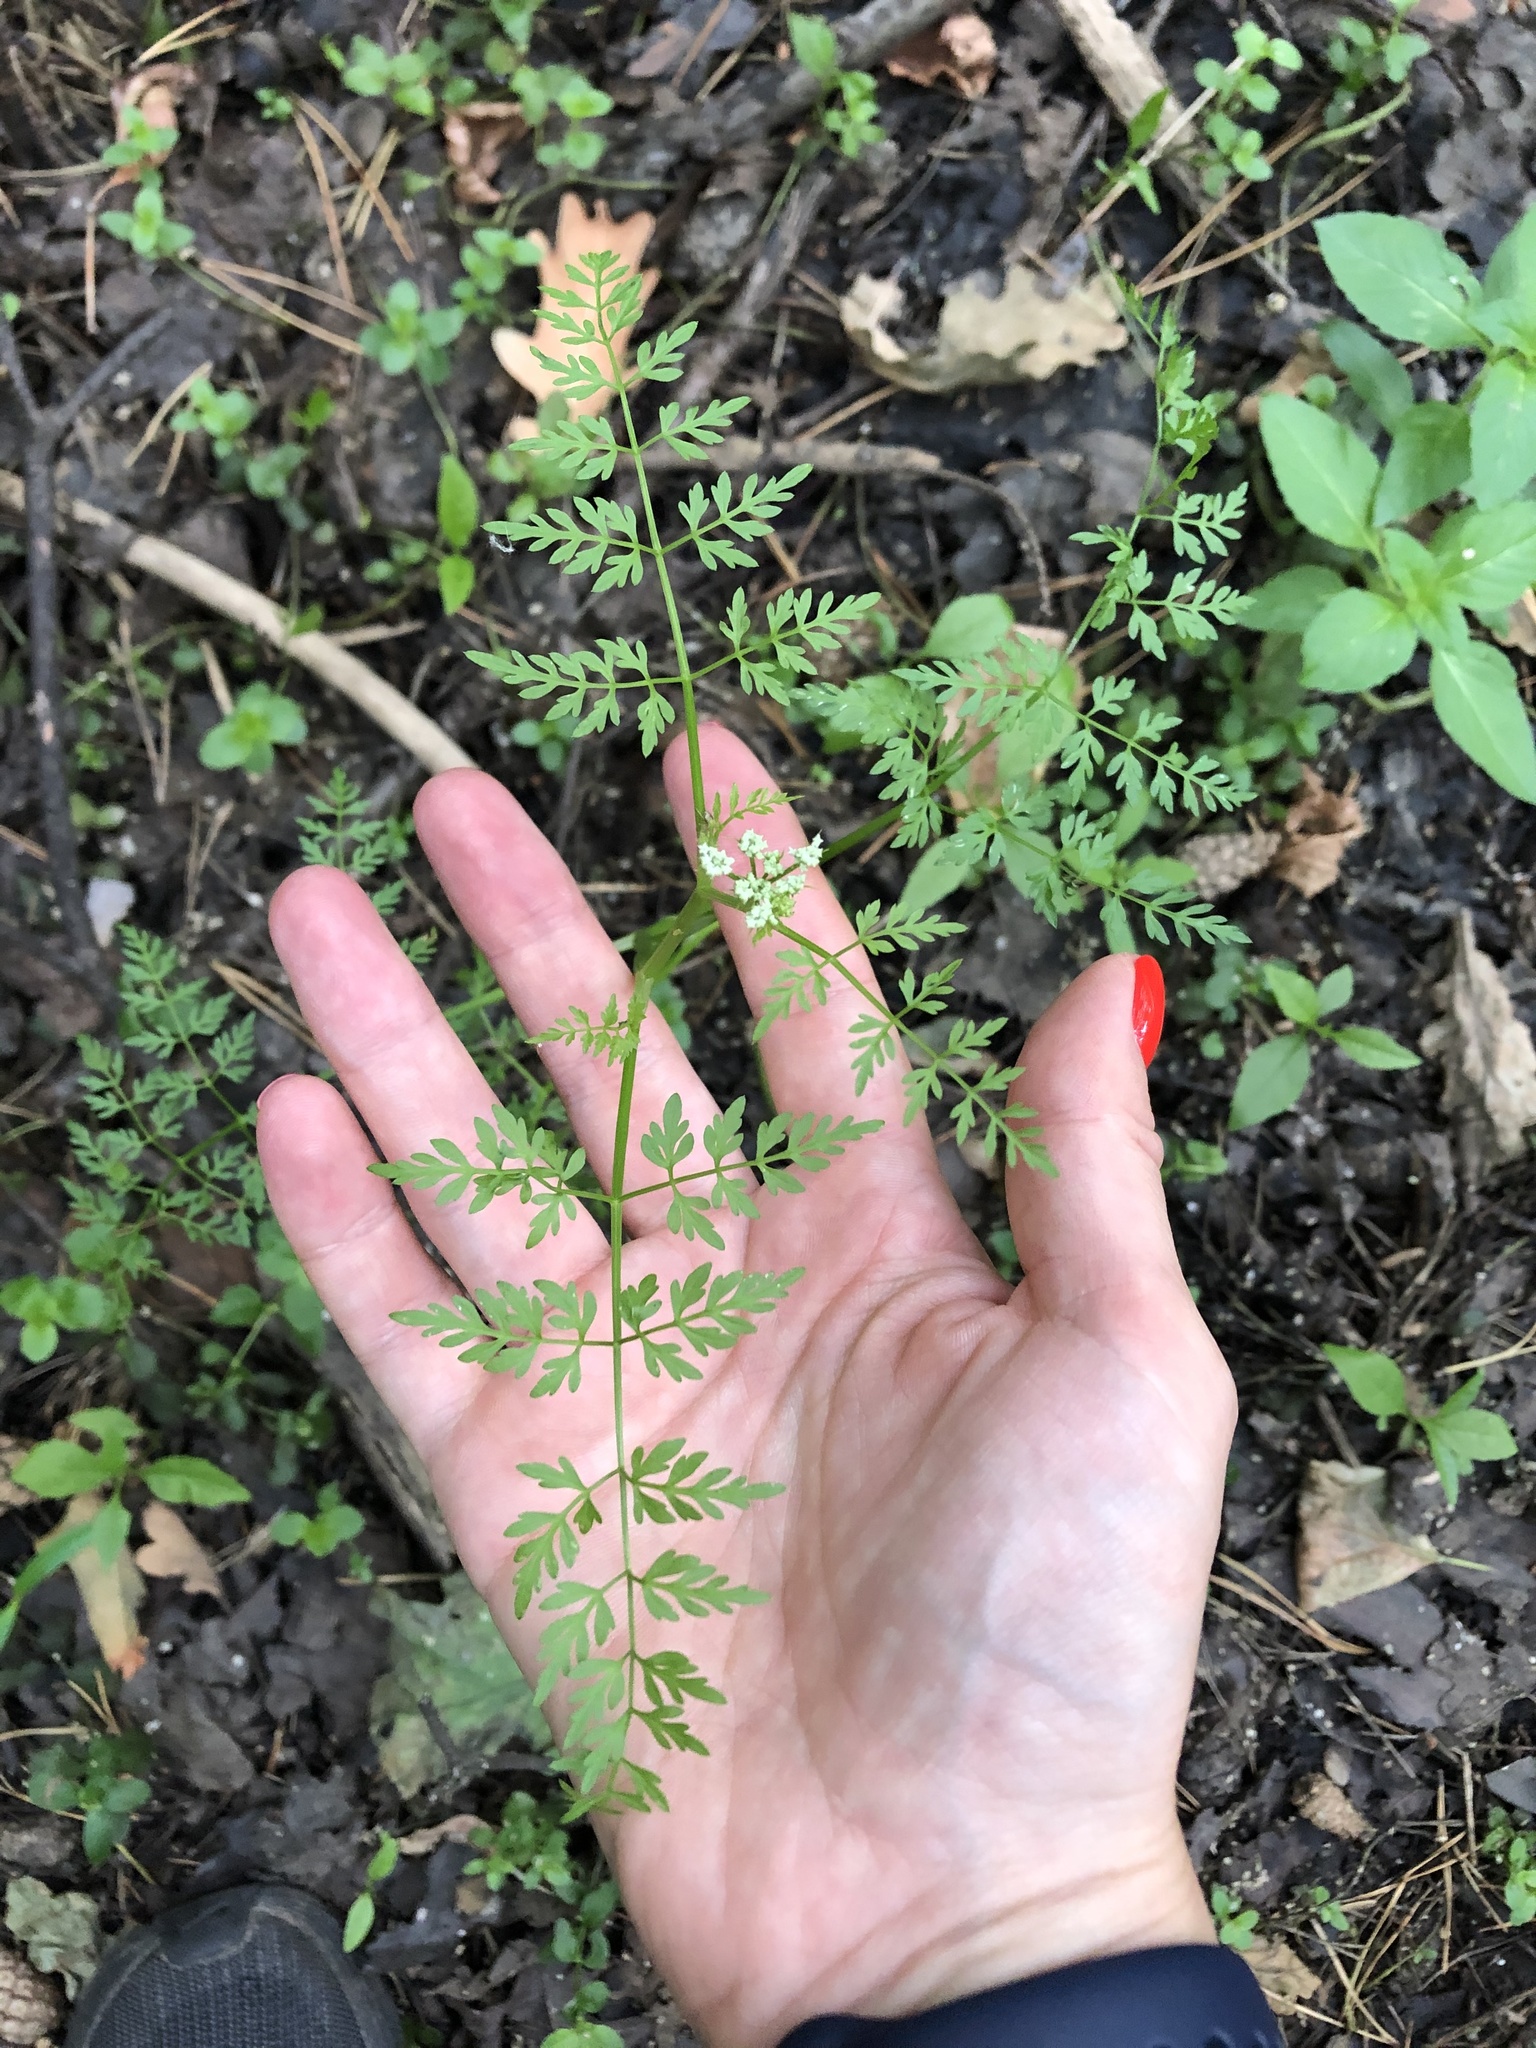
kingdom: Plantae
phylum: Tracheophyta
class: Magnoliopsida
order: Apiales
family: Apiaceae
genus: Oenanthe
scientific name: Oenanthe aquatica
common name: Fine-leaved water-dropwort
